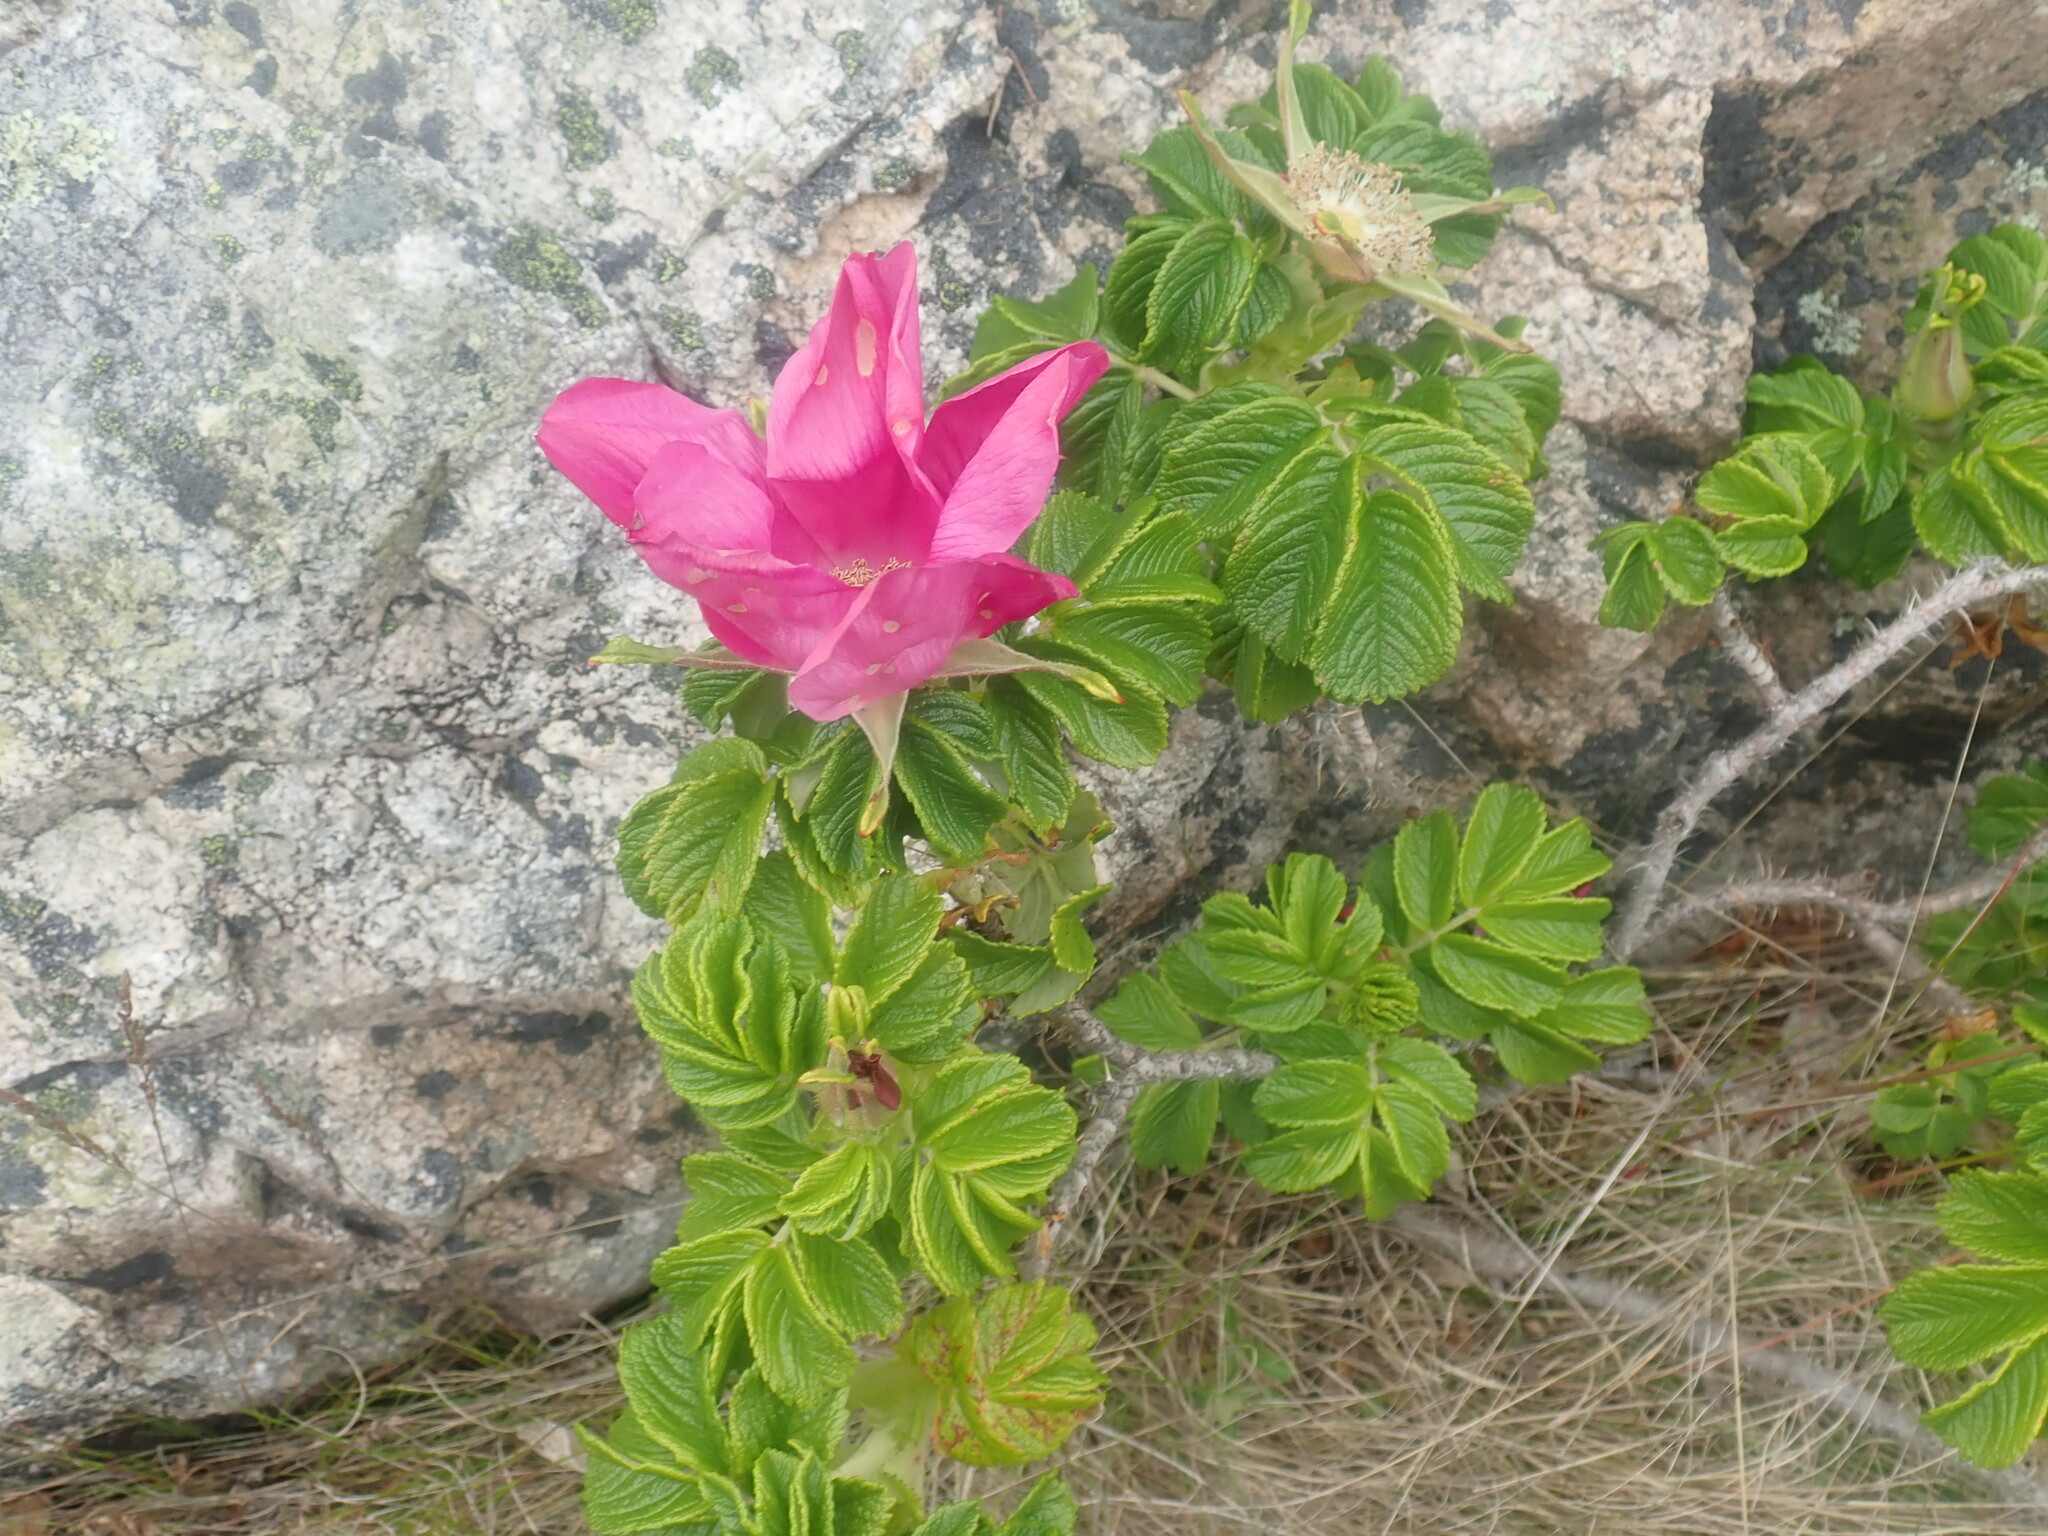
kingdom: Plantae
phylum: Tracheophyta
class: Magnoliopsida
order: Rosales
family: Rosaceae
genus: Rosa
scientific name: Rosa rugosa
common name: Japanese rose
